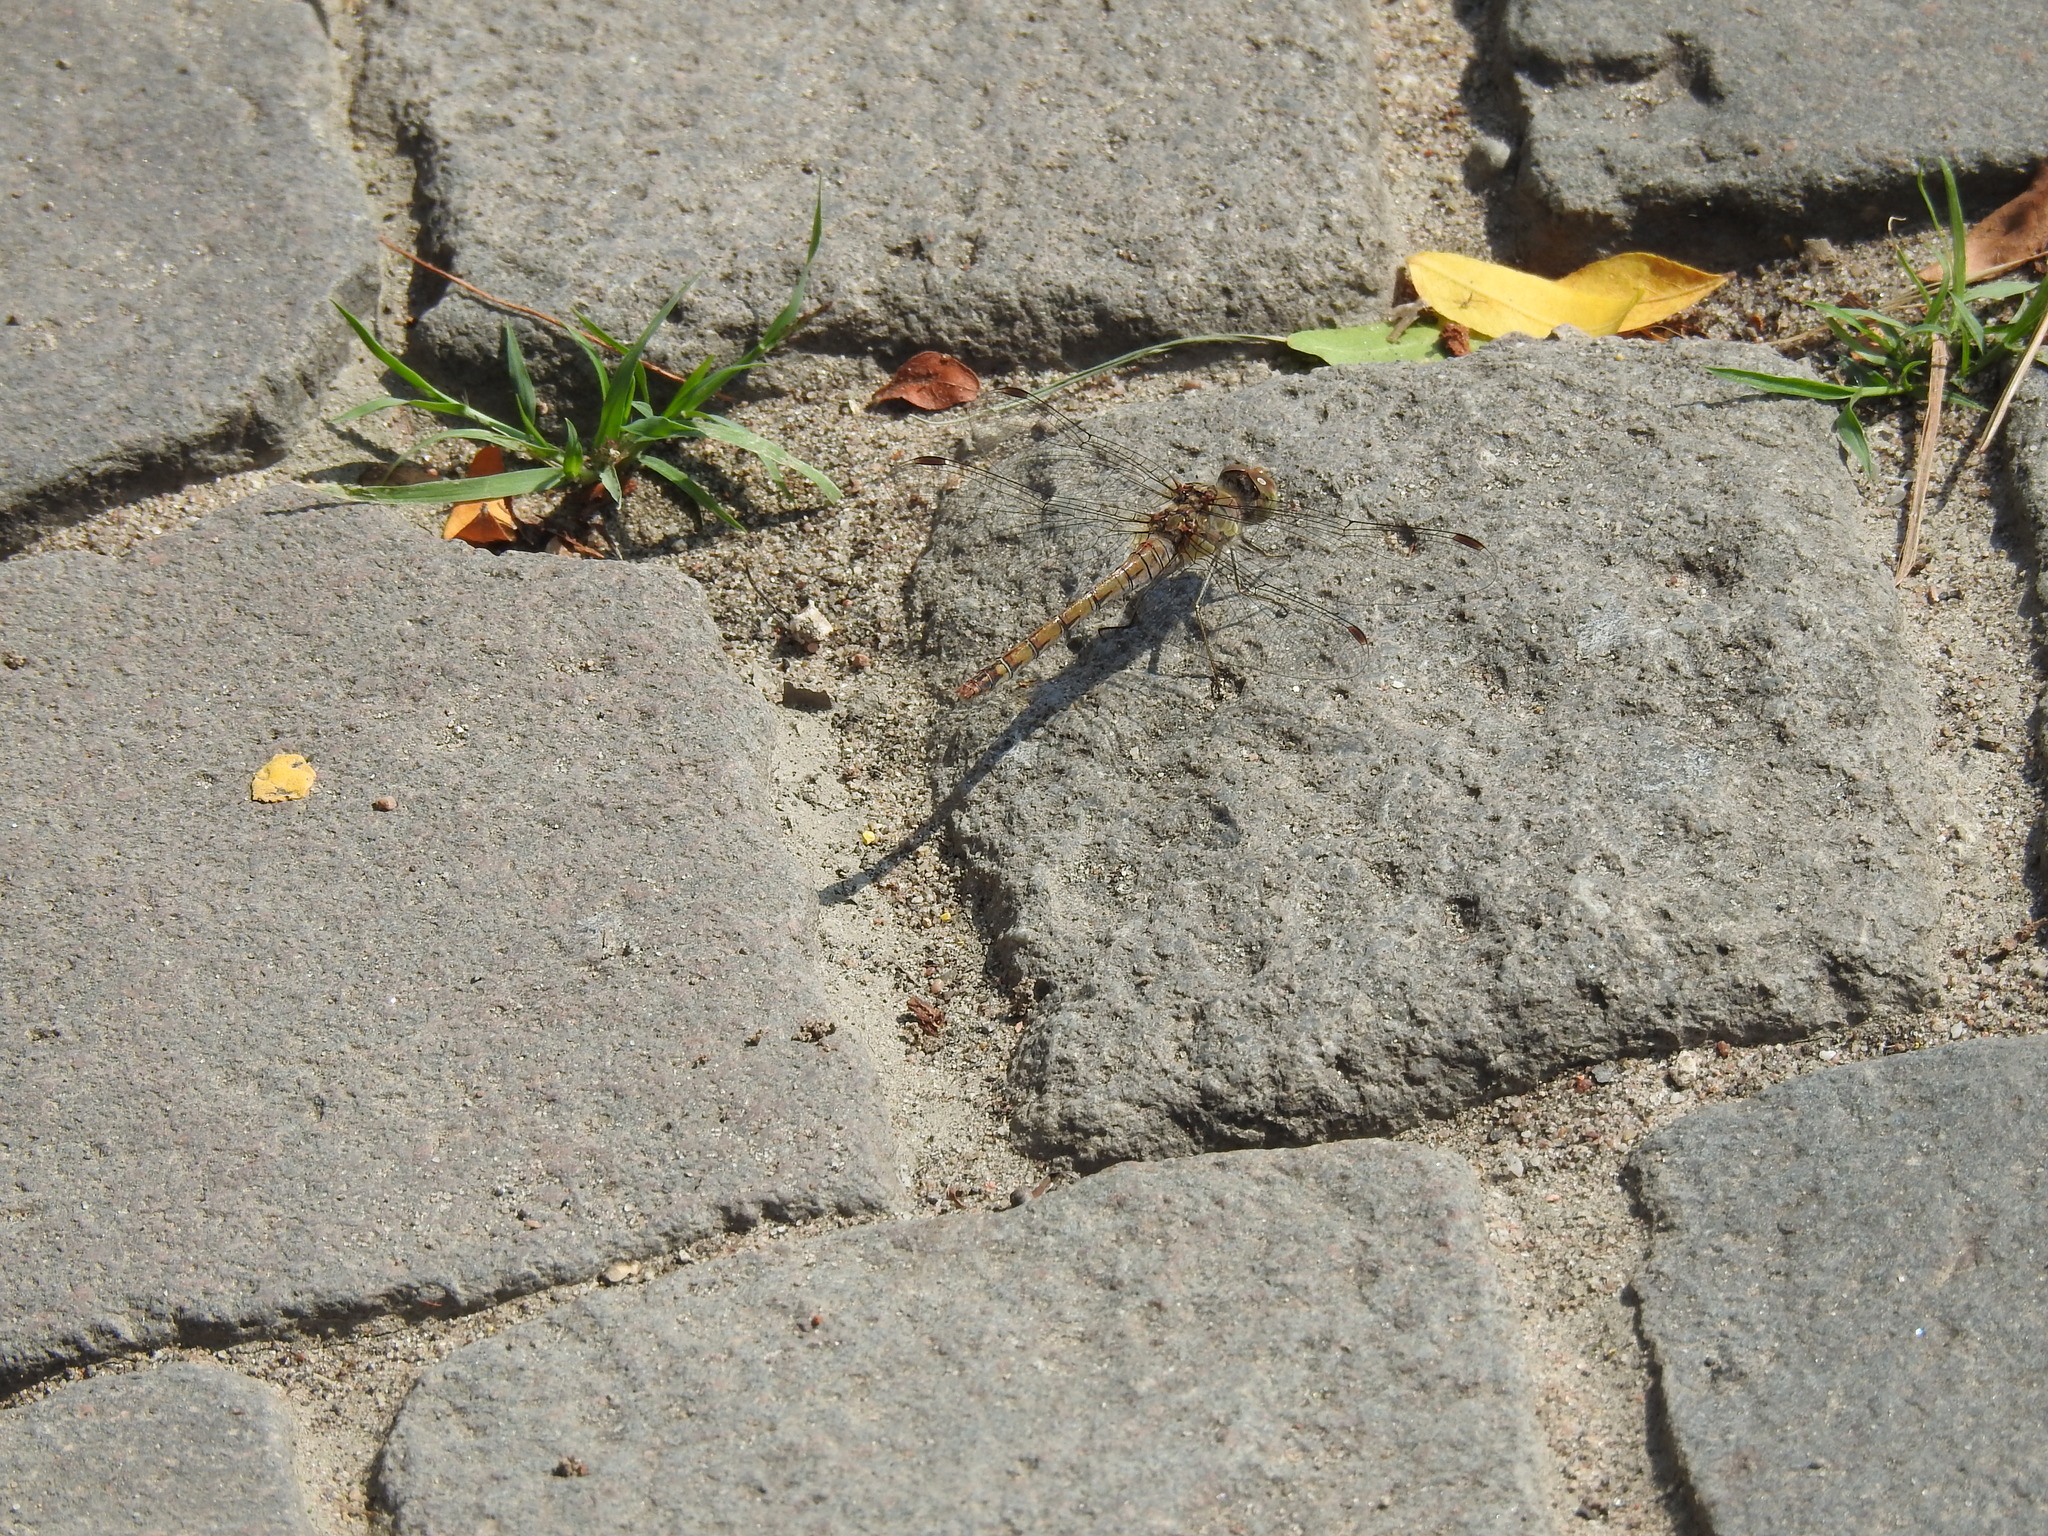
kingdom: Animalia
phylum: Arthropoda
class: Insecta
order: Odonata
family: Libellulidae
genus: Sympetrum
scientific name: Sympetrum striolatum
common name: Common darter
